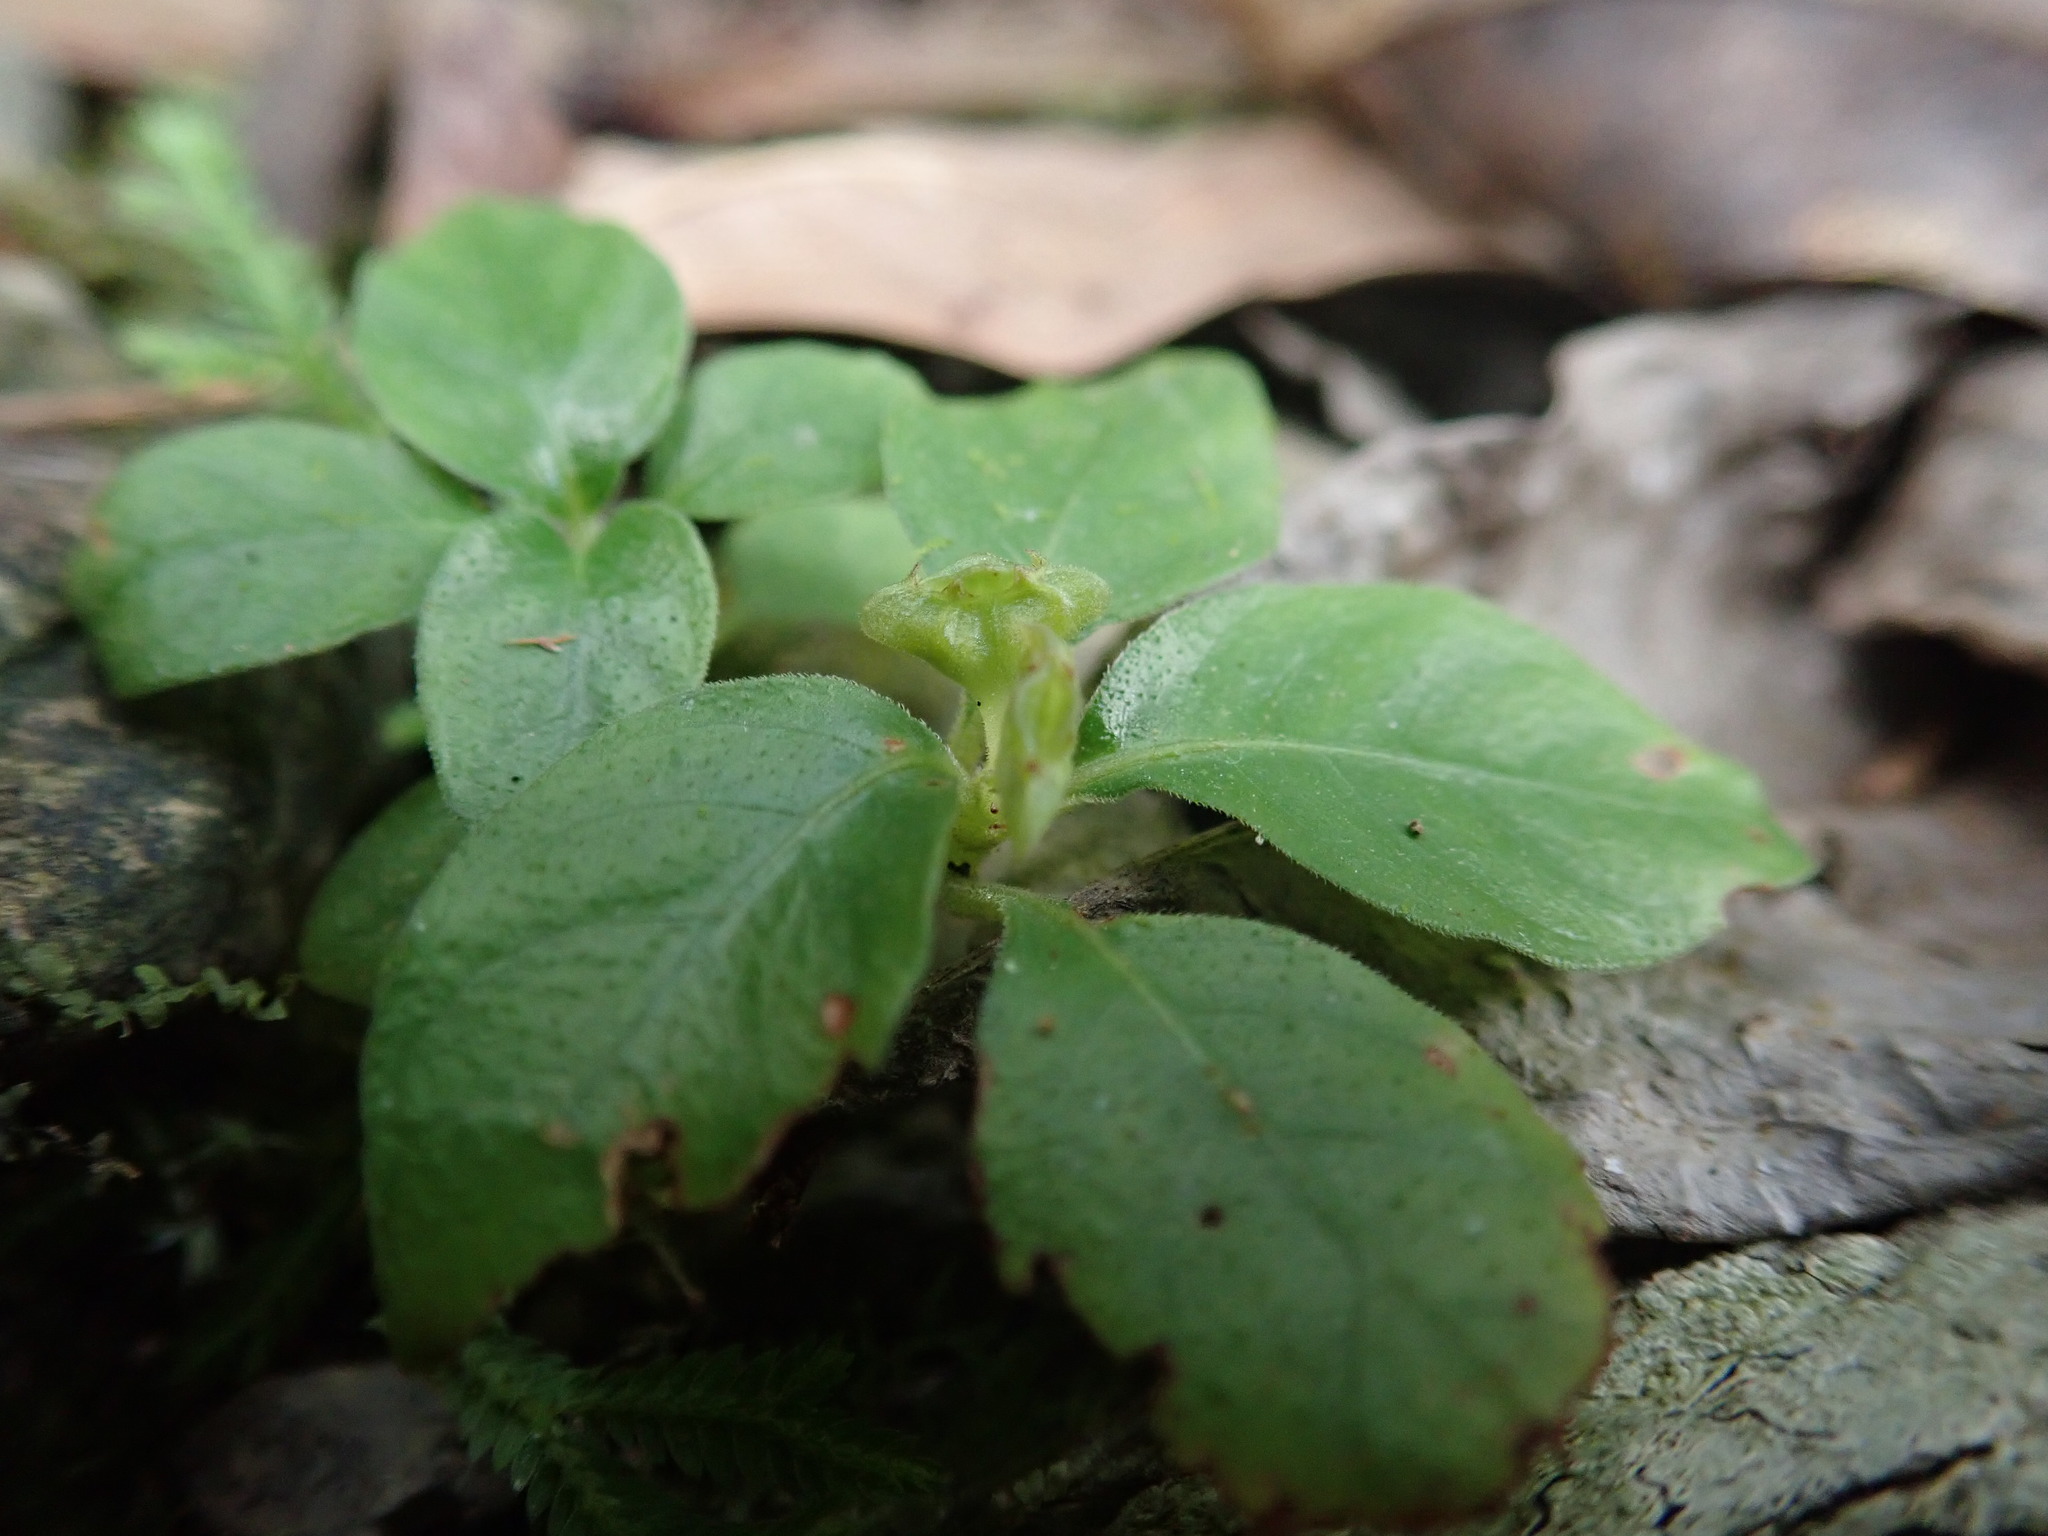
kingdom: Plantae
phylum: Tracheophyta
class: Magnoliopsida
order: Gentianales
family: Rubiaceae
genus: Ophiorrhiza
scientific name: Ophiorrhiza pumila
